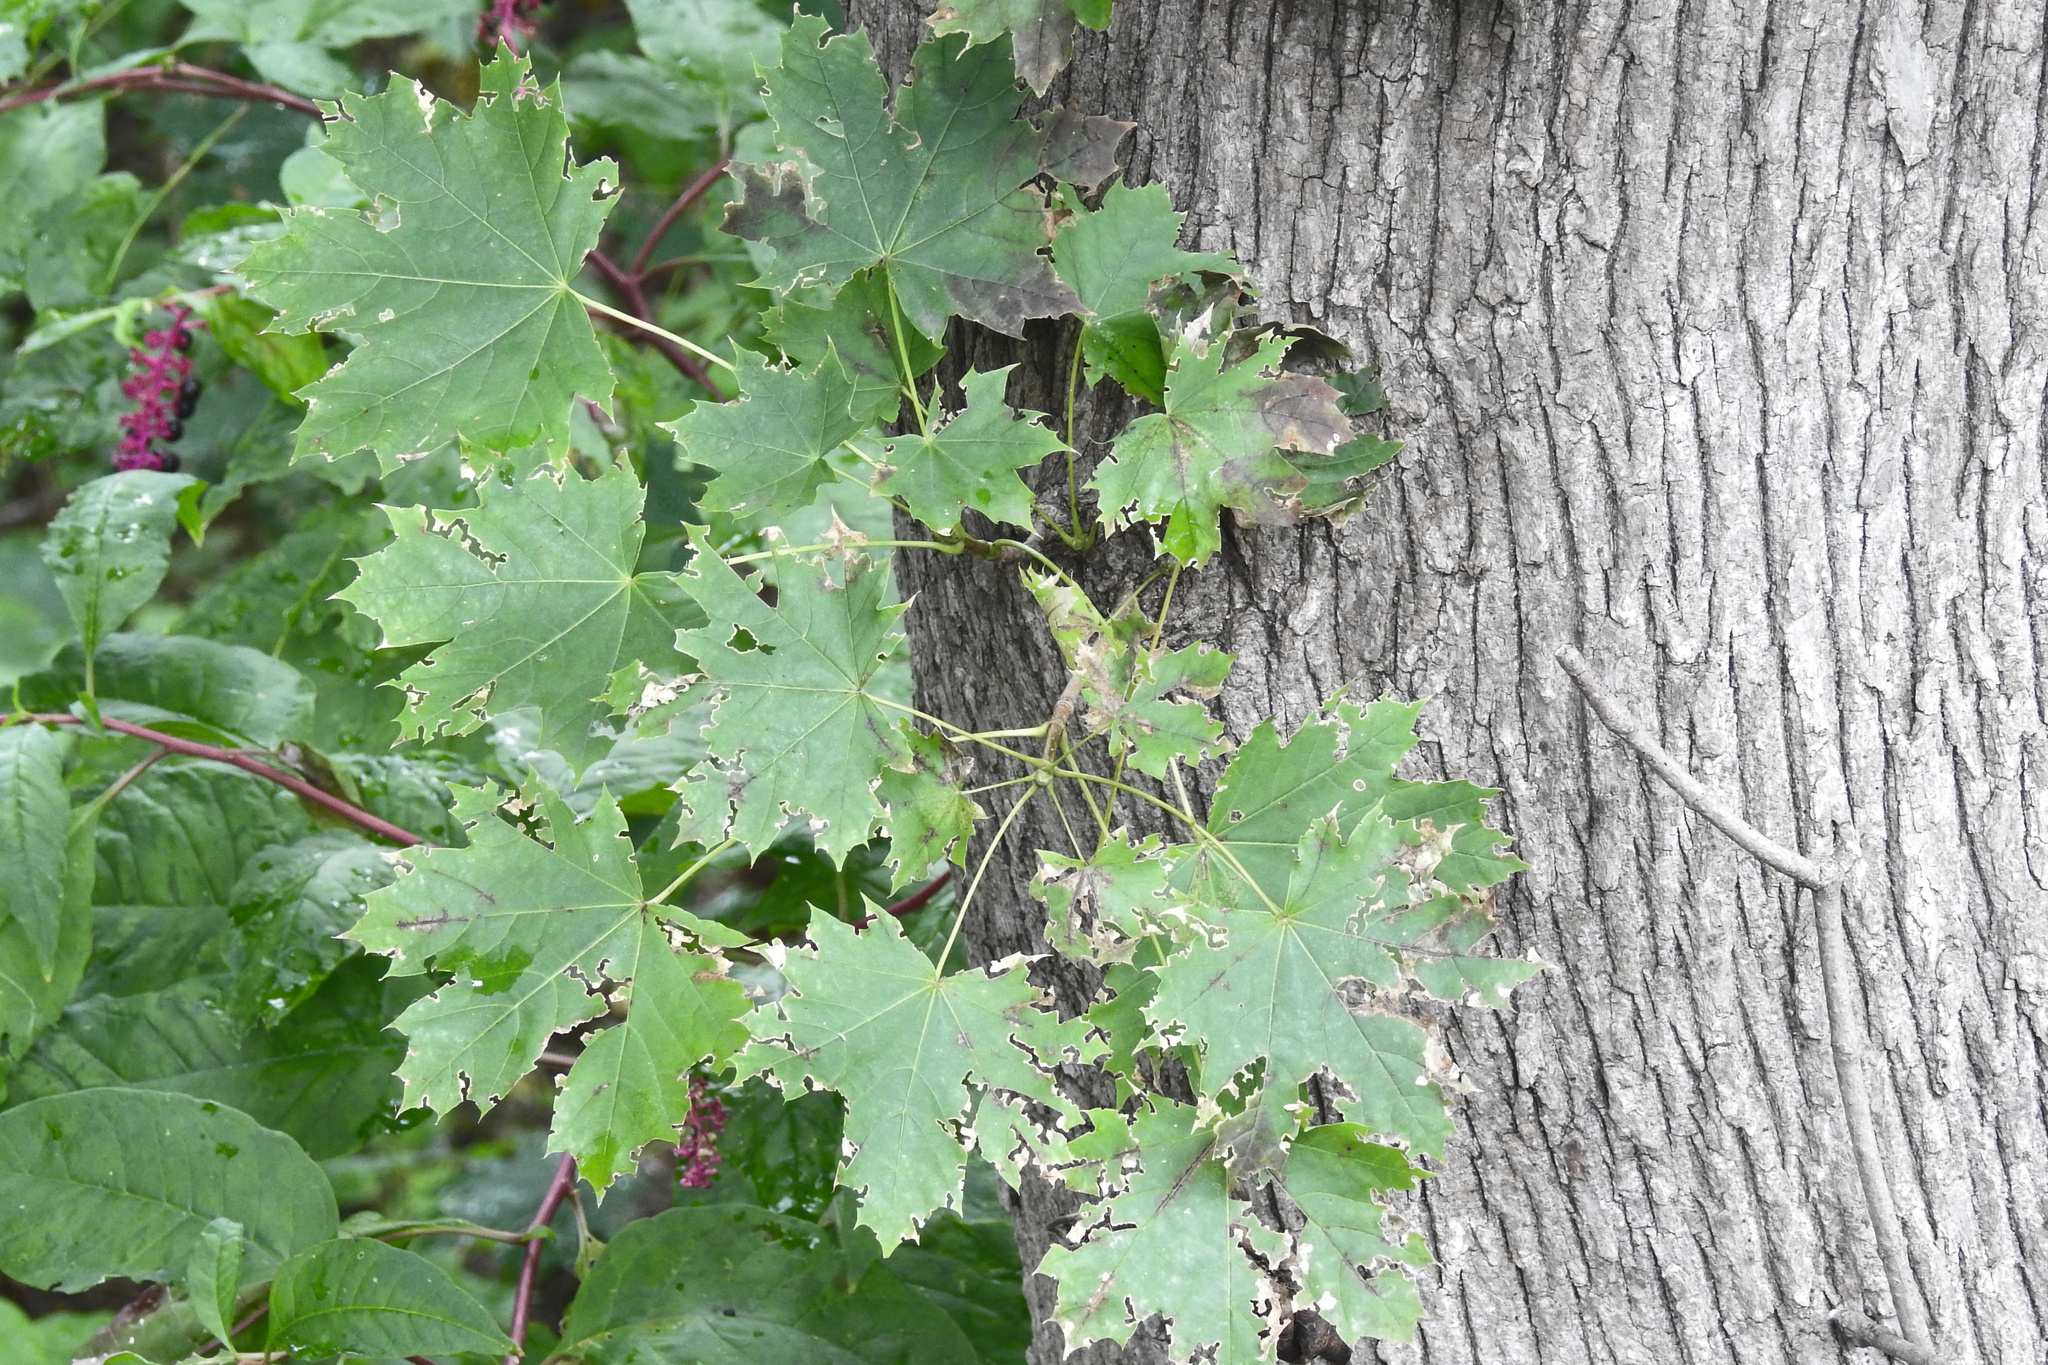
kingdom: Plantae
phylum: Tracheophyta
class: Magnoliopsida
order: Sapindales
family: Sapindaceae
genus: Acer
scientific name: Acer platanoides
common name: Norway maple
